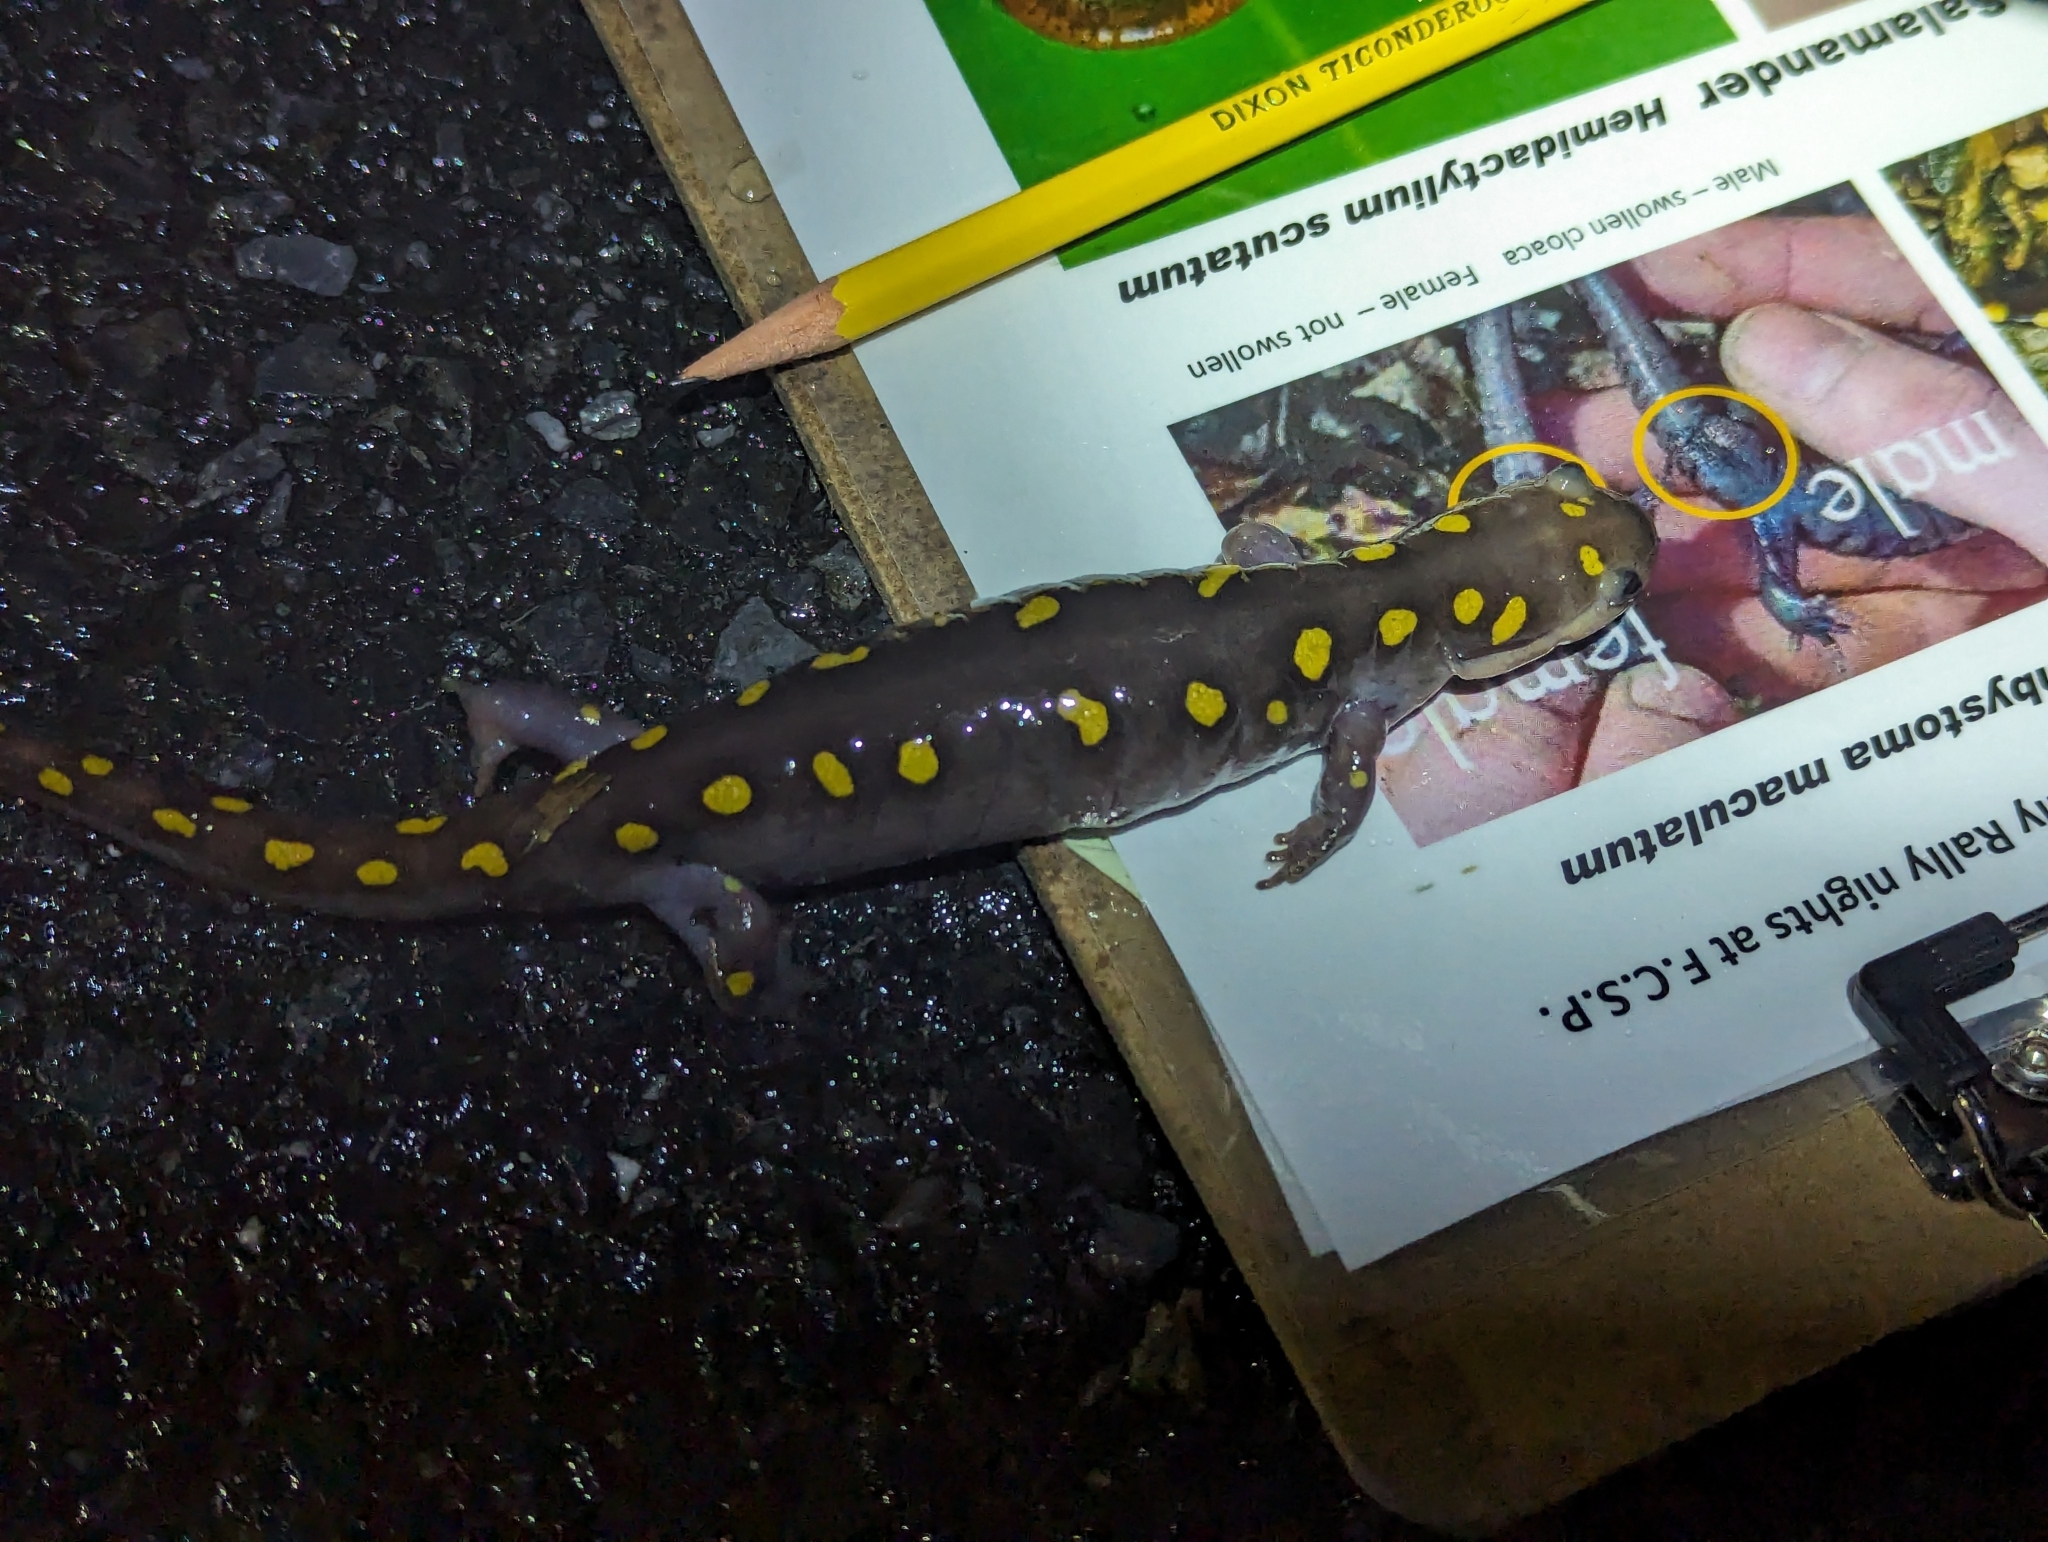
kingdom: Animalia
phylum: Chordata
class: Amphibia
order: Caudata
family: Ambystomatidae
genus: Ambystoma
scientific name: Ambystoma maculatum
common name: Spotted salamander
